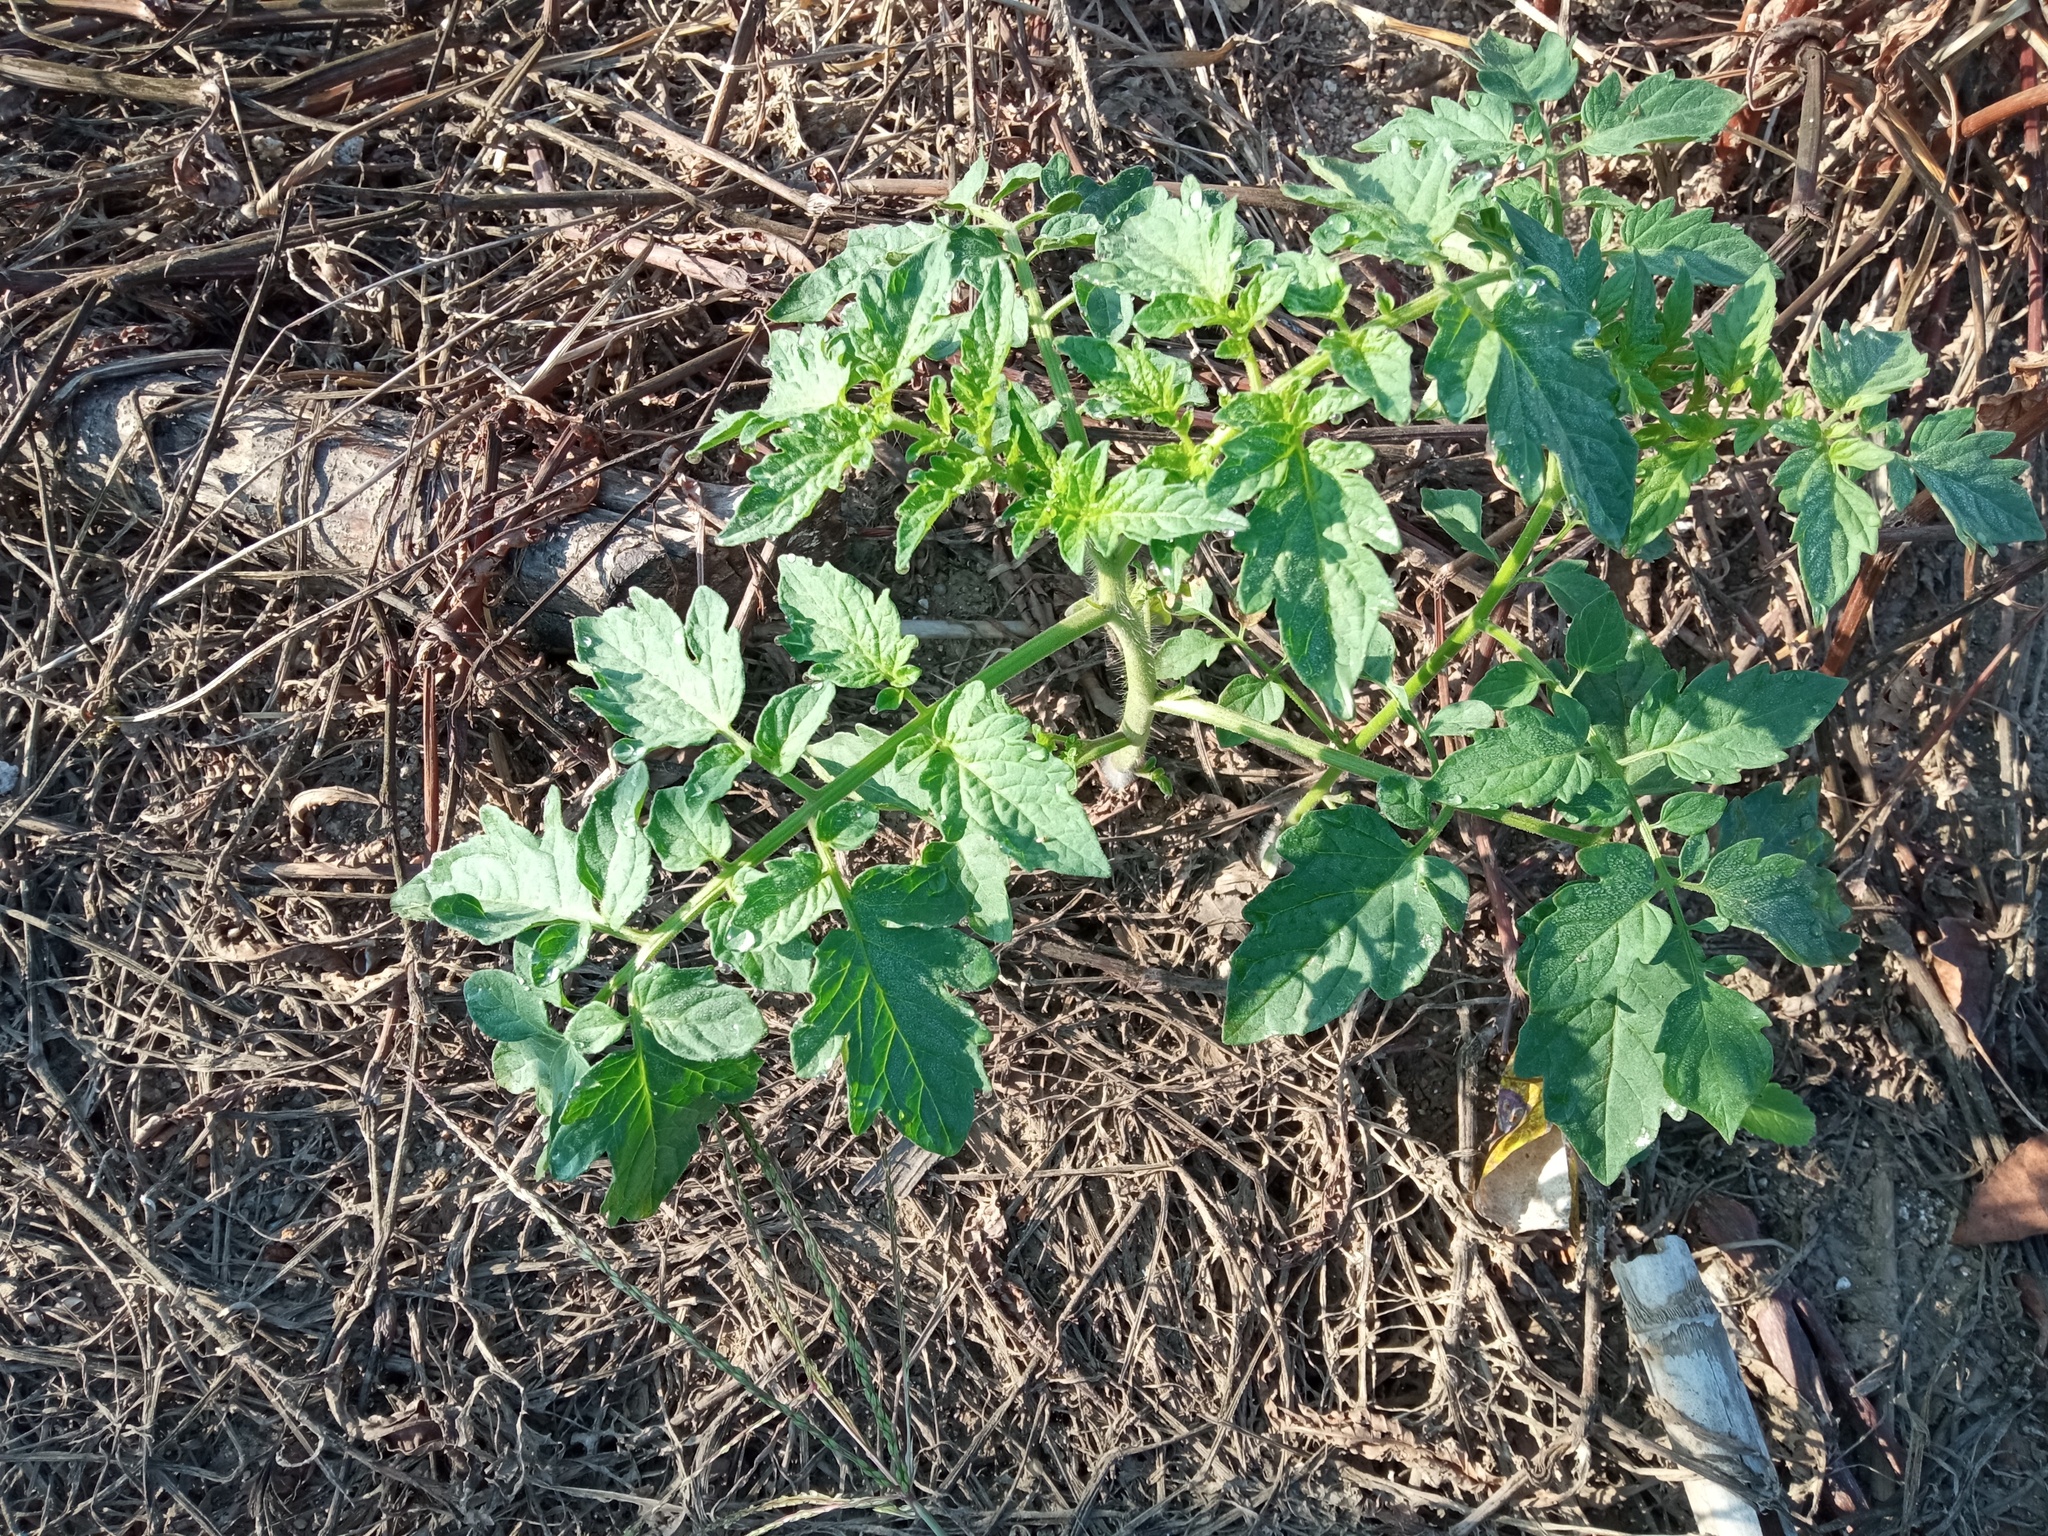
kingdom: Plantae
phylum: Tracheophyta
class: Magnoliopsida
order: Solanales
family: Solanaceae
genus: Solanum
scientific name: Solanum lycopersicum
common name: Garden tomato
